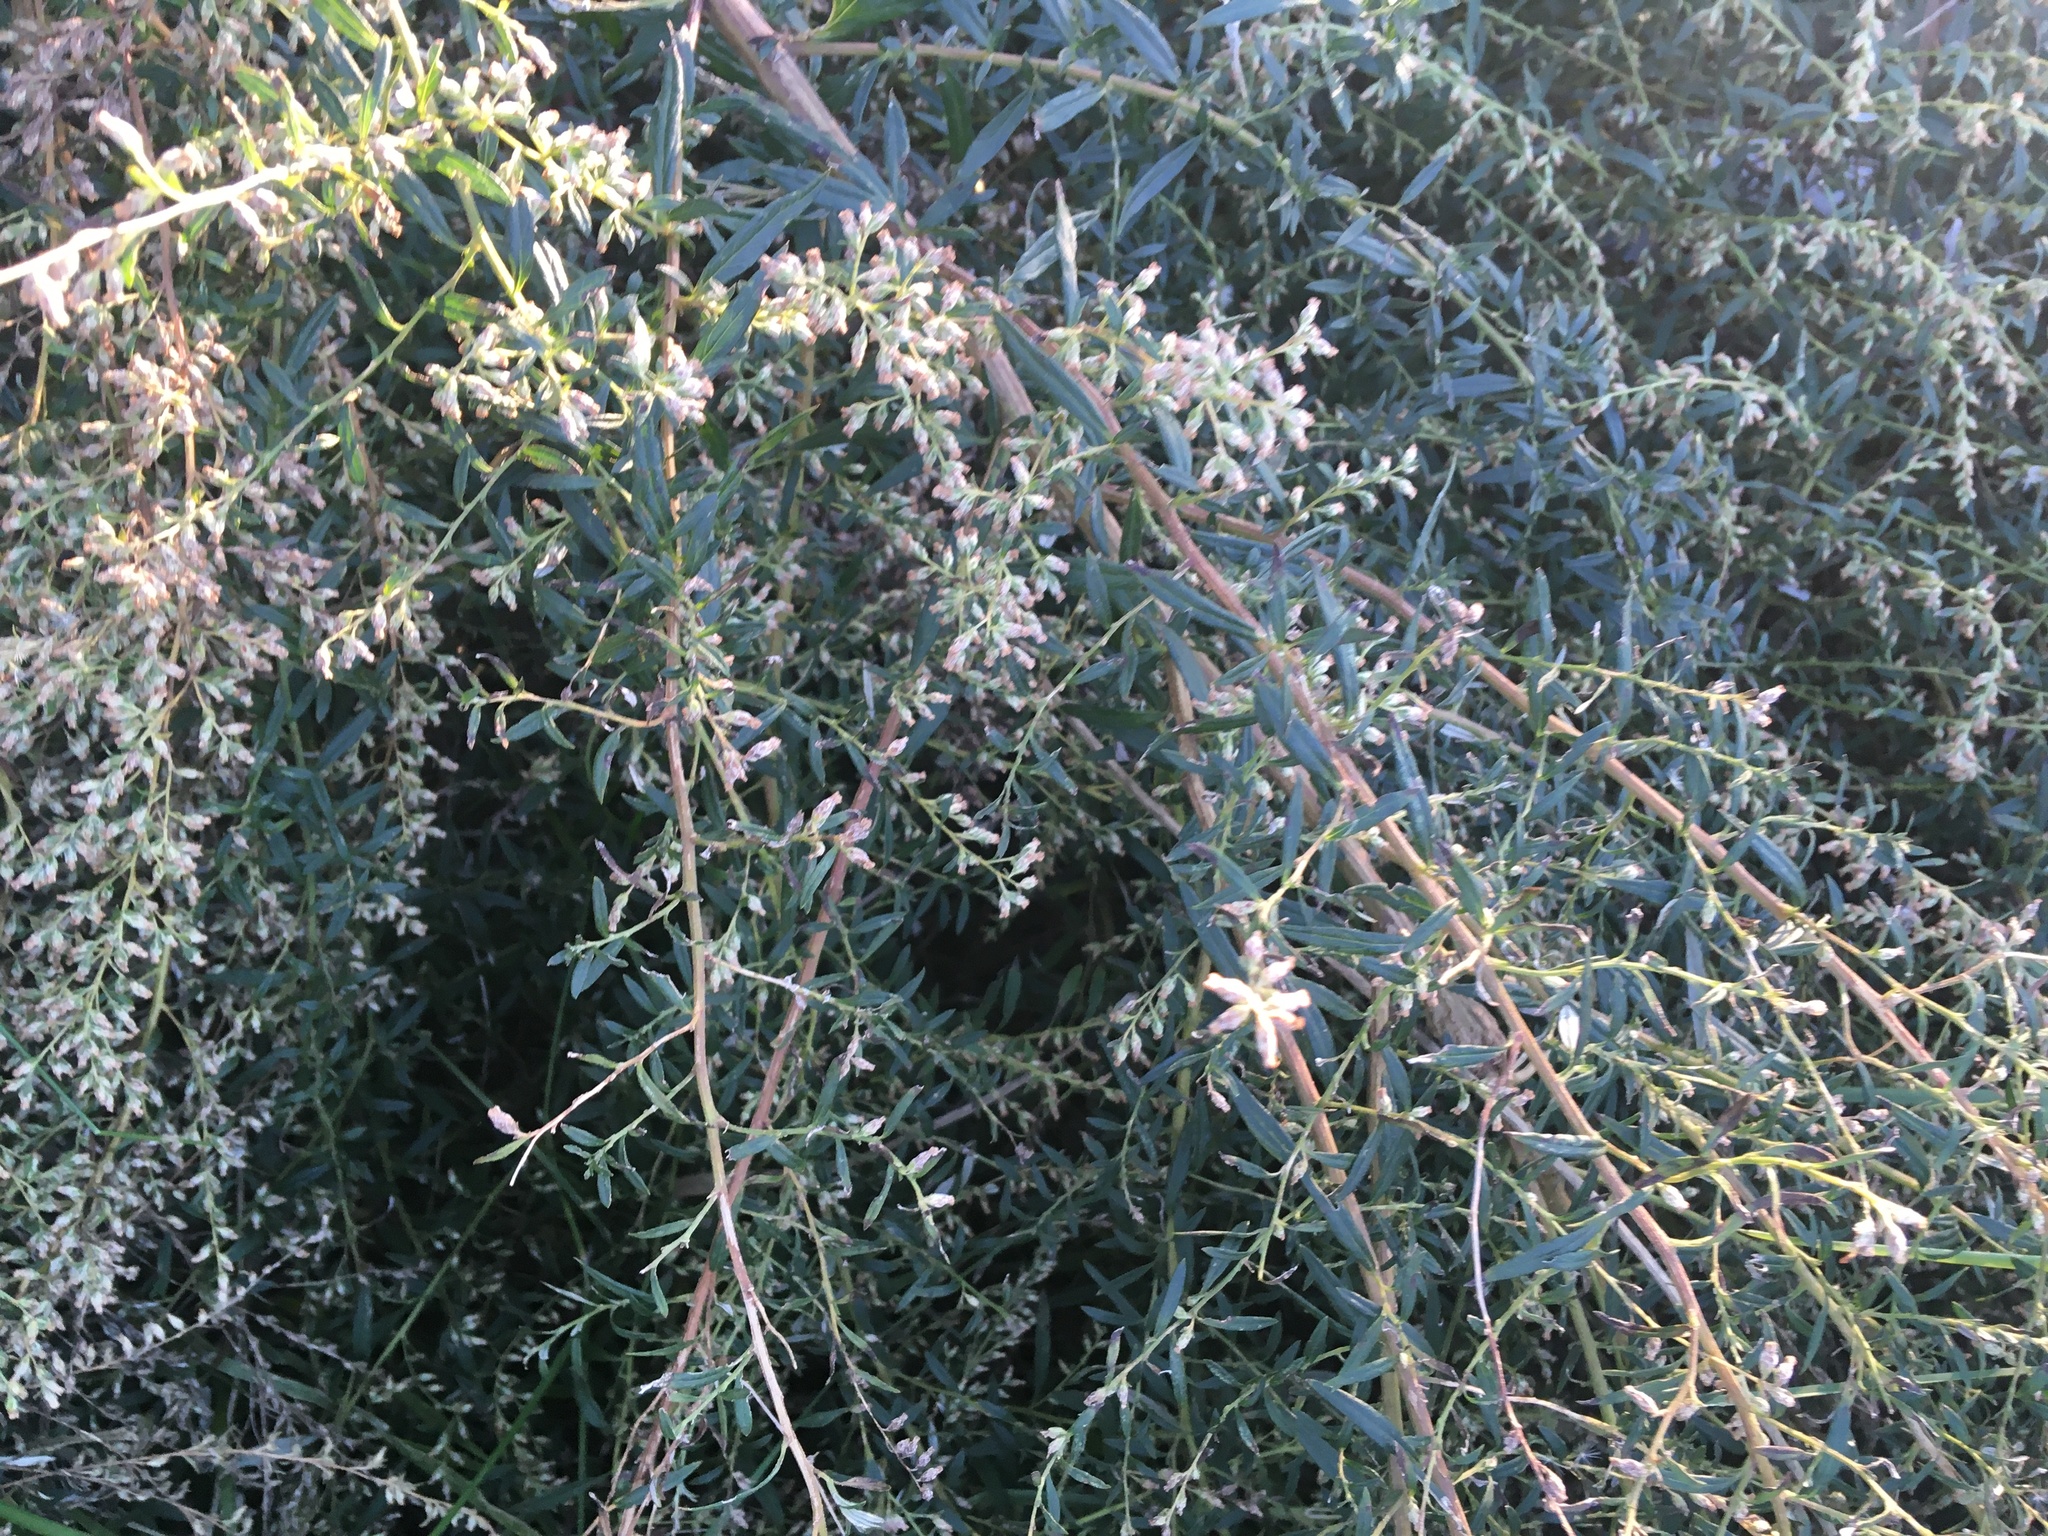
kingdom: Plantae
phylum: Tracheophyta
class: Magnoliopsida
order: Asterales
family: Asteraceae
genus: Artemisia
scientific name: Artemisia vulgaris
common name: Mugwort
